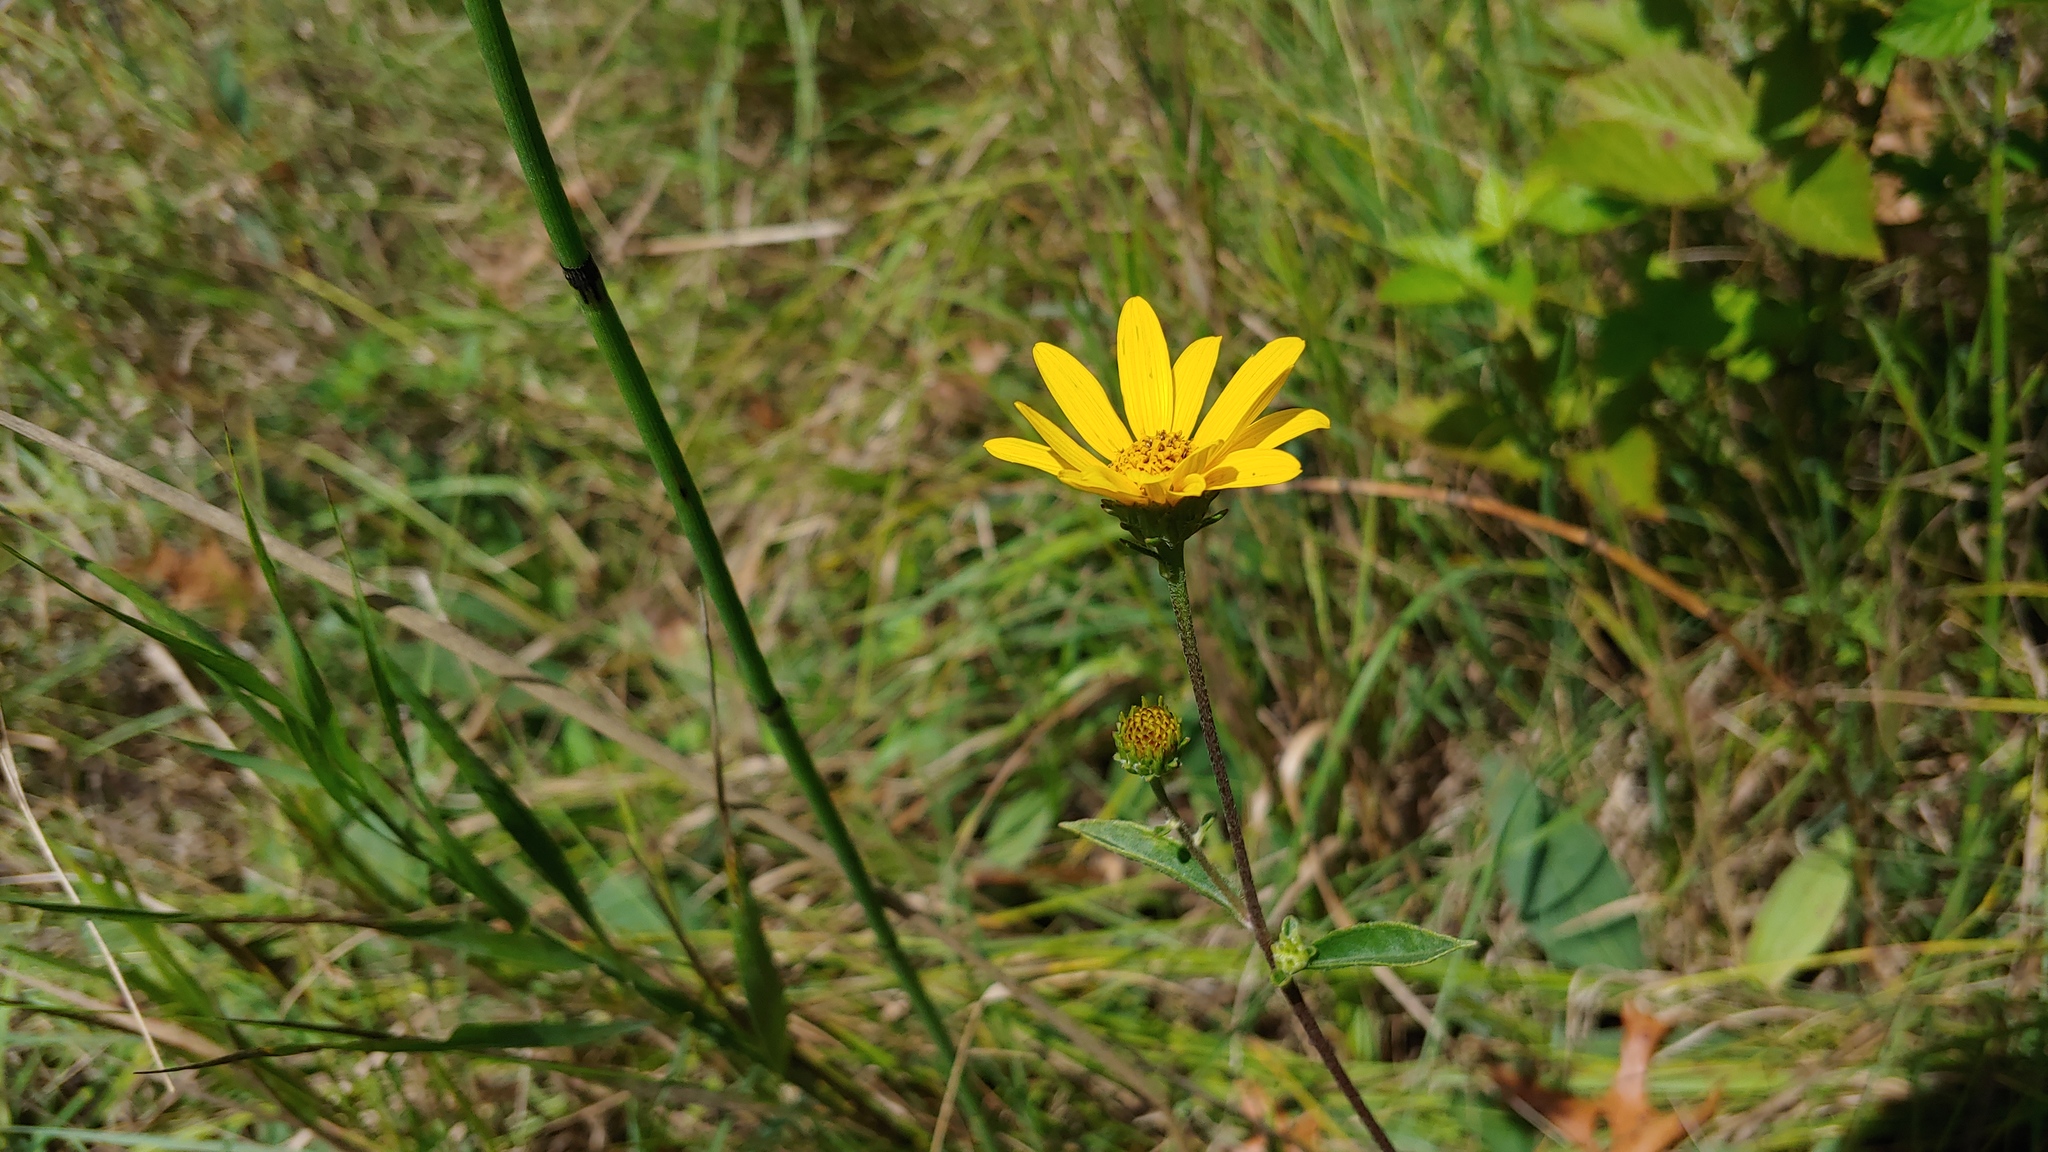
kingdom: Plantae
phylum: Tracheophyta
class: Magnoliopsida
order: Asterales
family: Asteraceae
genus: Helianthus
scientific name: Helianthus occidentalis
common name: Western sunflower
